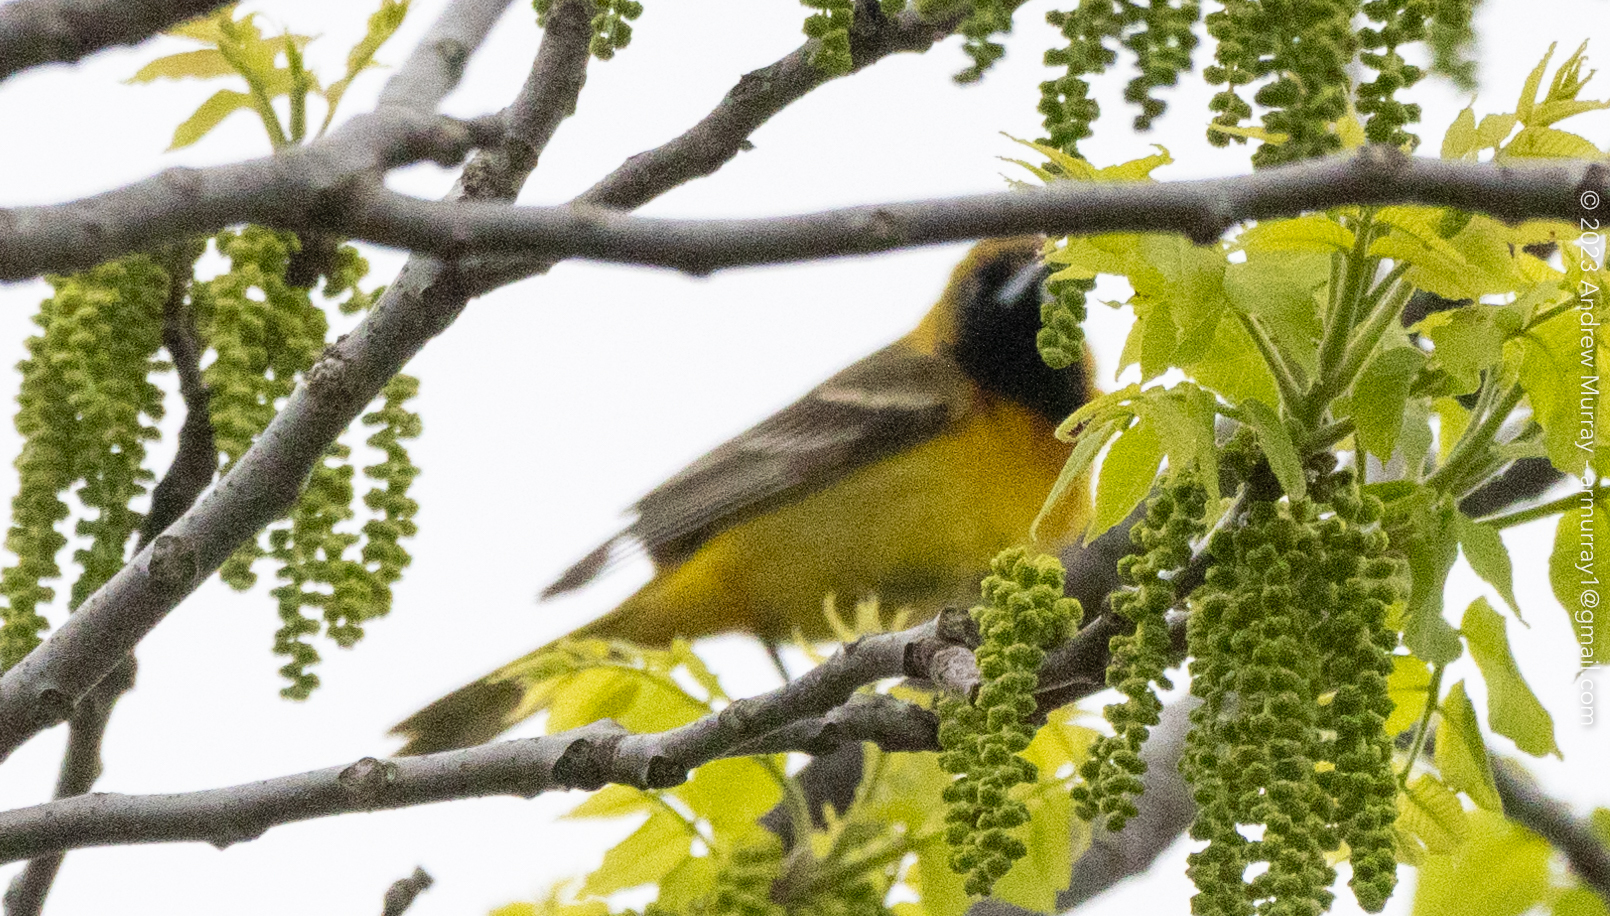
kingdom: Animalia
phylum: Chordata
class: Aves
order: Passeriformes
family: Icteridae
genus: Icterus
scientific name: Icterus spurius
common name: Orchard oriole
